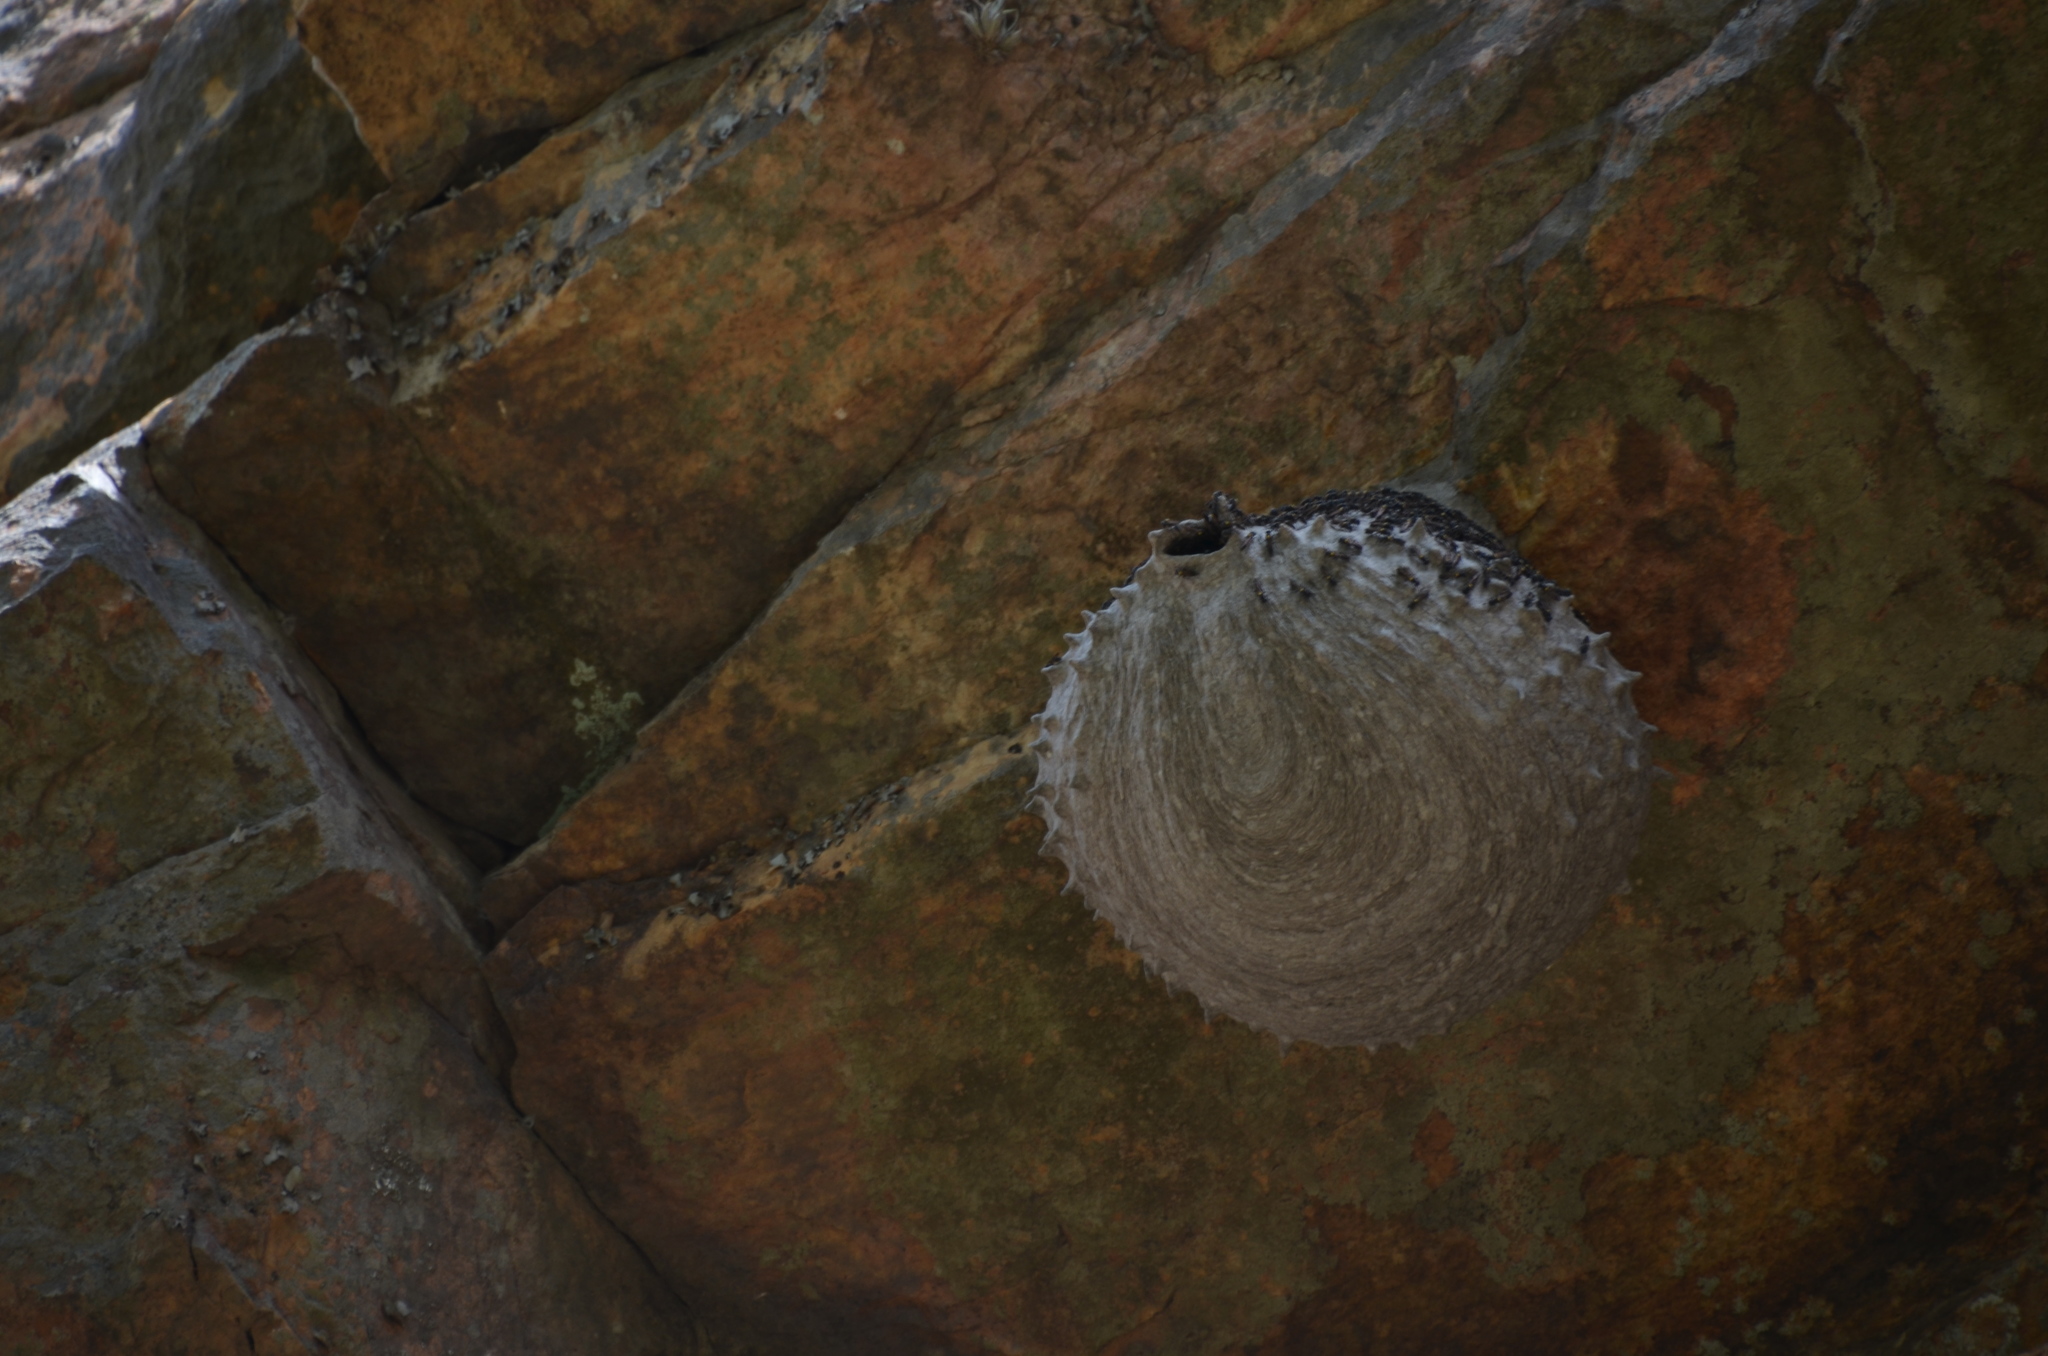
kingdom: Animalia
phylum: Arthropoda
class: Insecta
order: Hymenoptera
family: Eumenidae
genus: Polybia
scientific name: Polybia scutellaris
